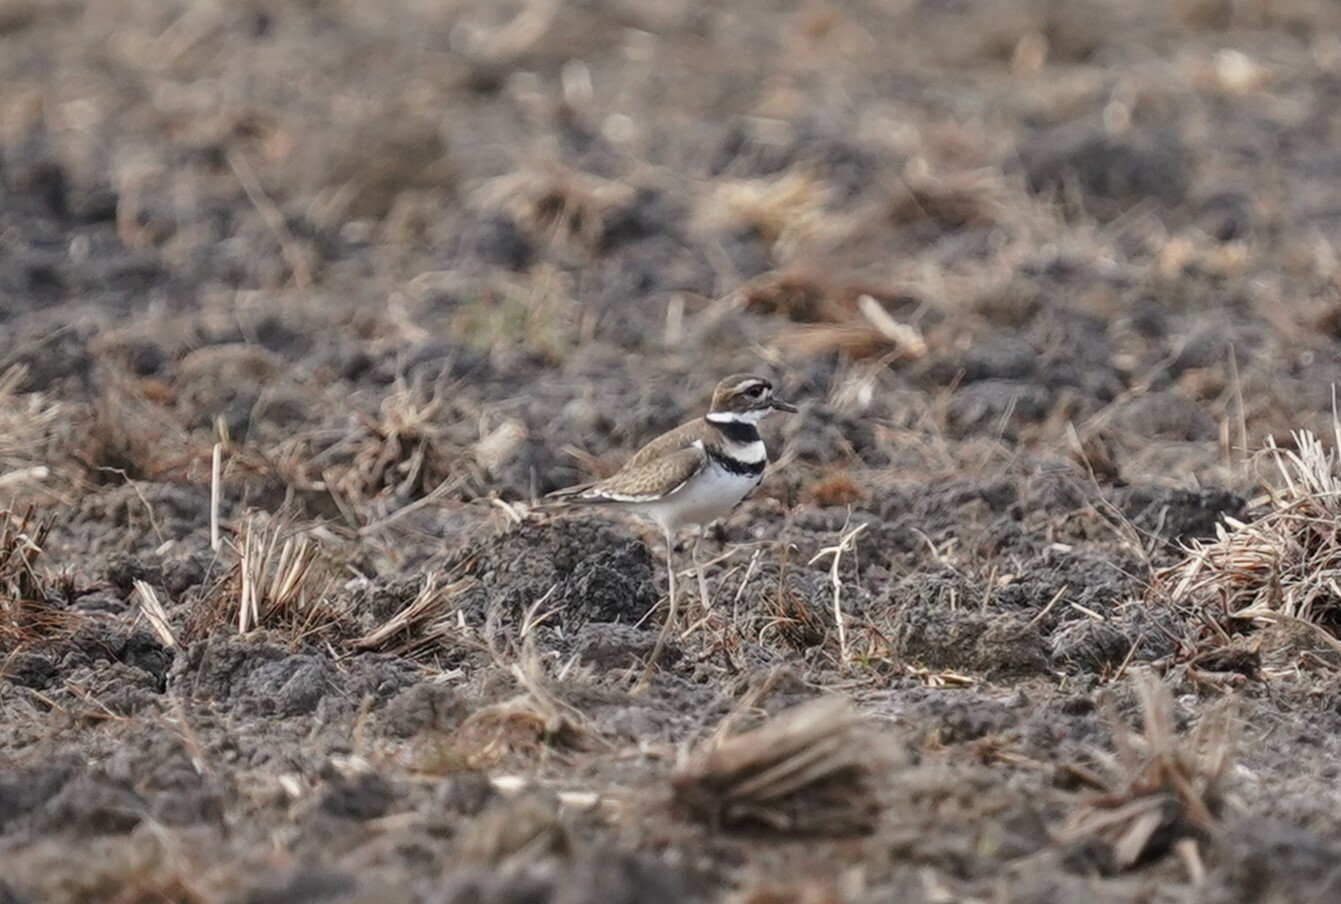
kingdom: Animalia
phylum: Chordata
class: Aves
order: Charadriiformes
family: Charadriidae
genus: Charadrius
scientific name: Charadrius vociferus
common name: Killdeer
